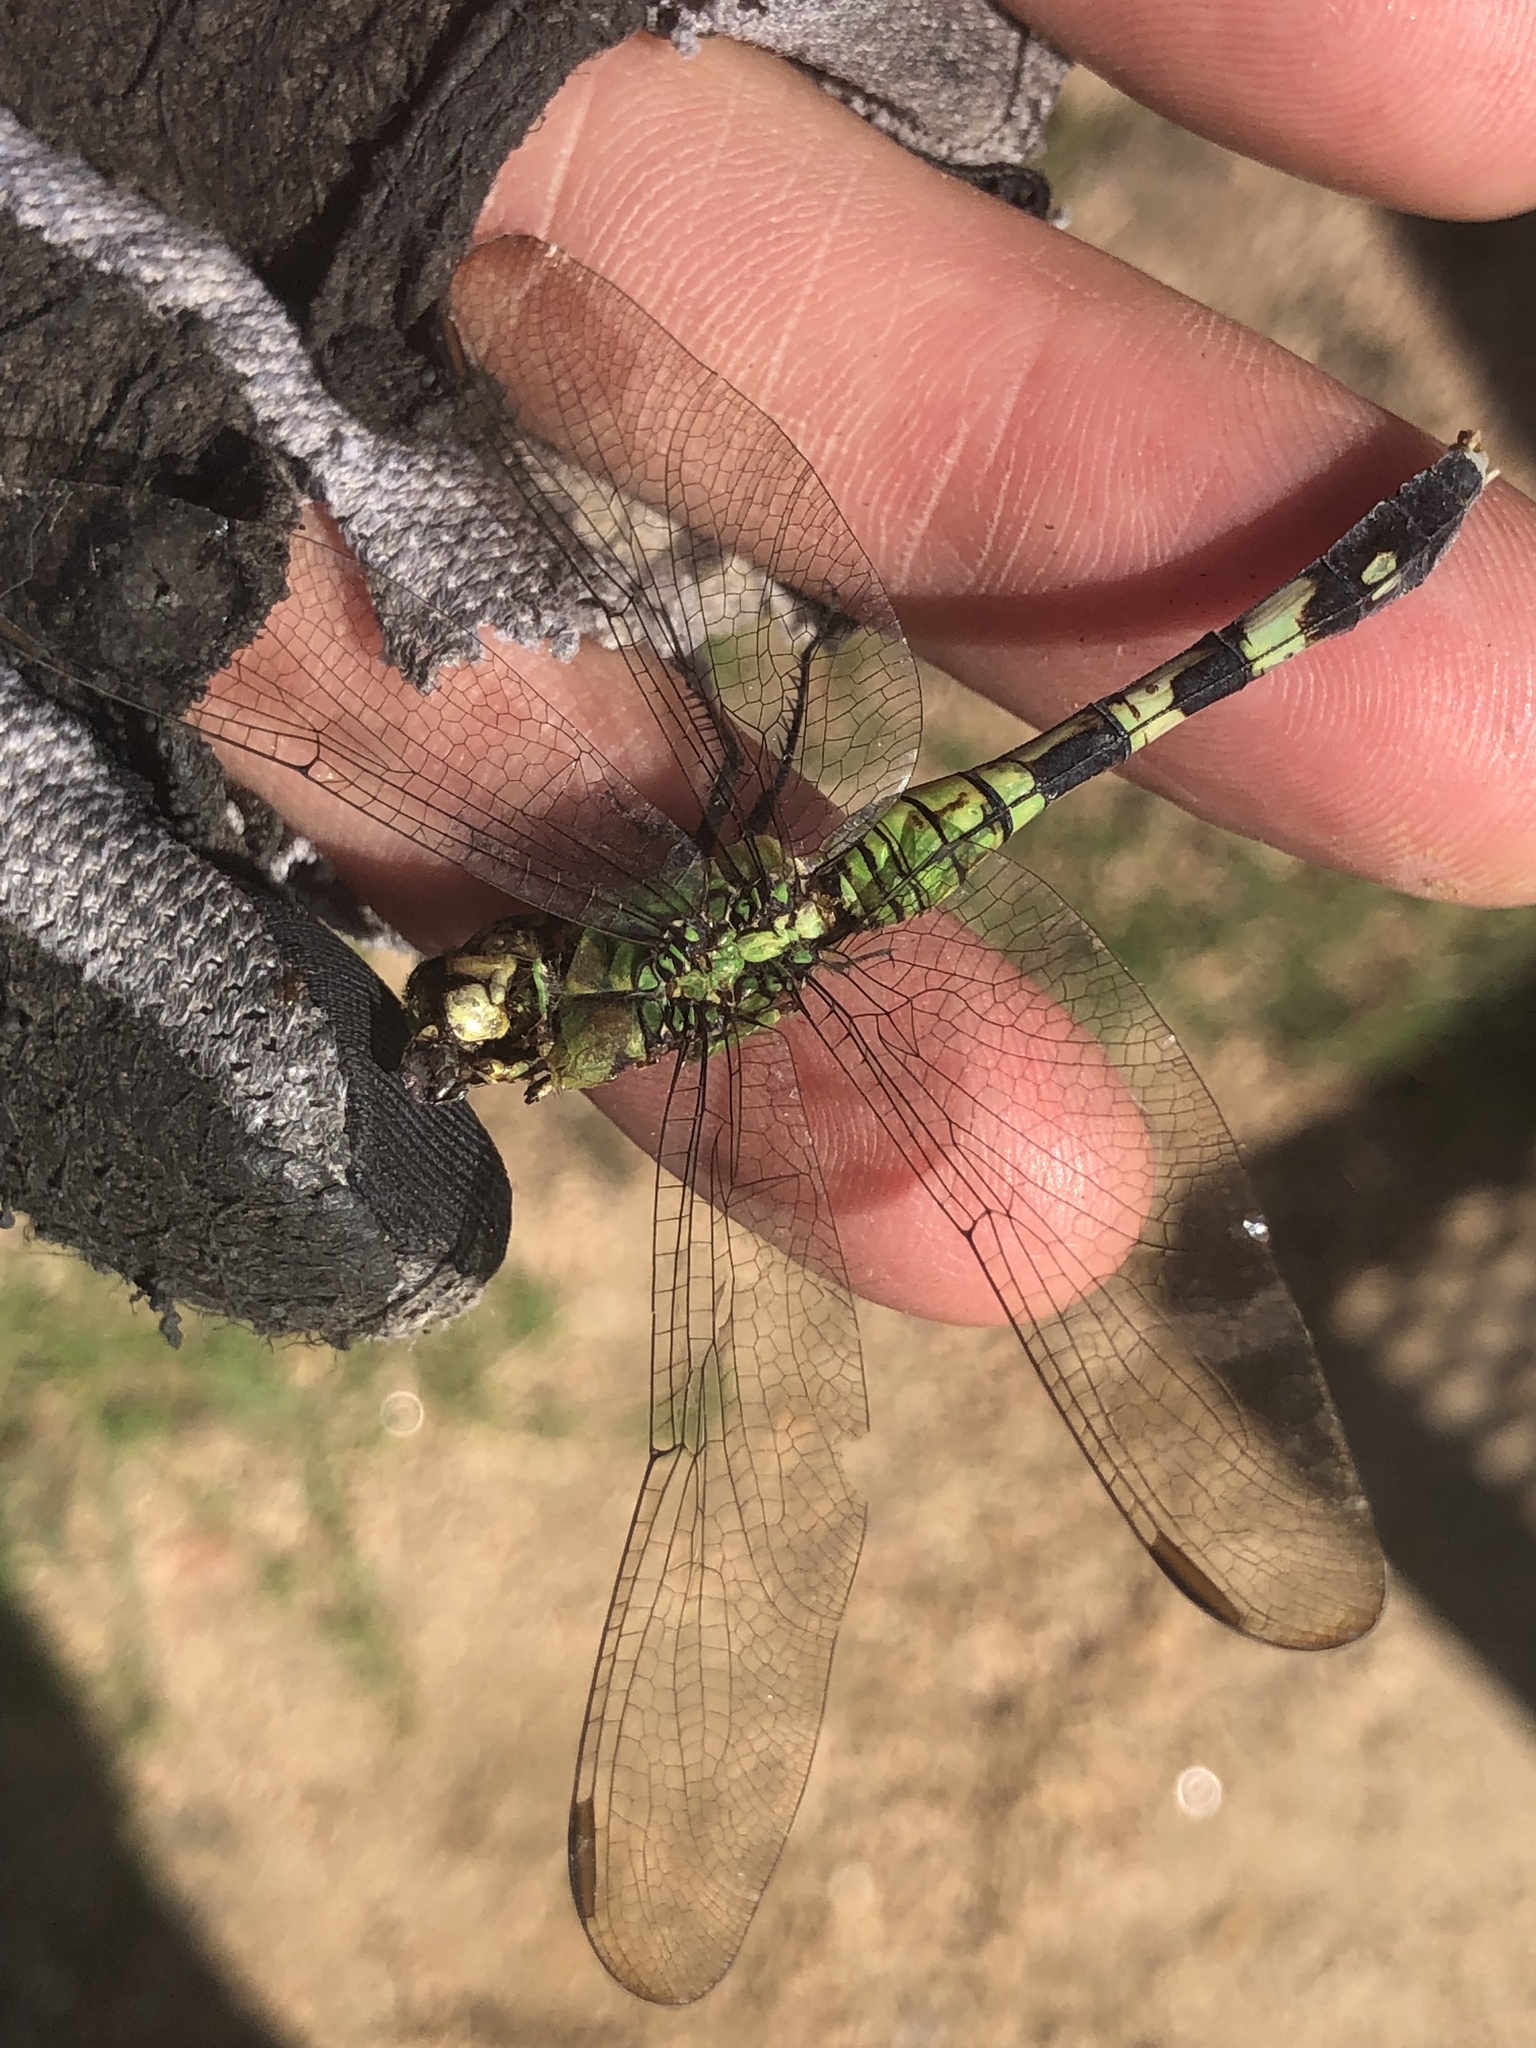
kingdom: Animalia
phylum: Arthropoda
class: Insecta
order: Odonata
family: Libellulidae
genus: Erythemis
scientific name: Erythemis simplicicollis
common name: Eastern pondhawk
